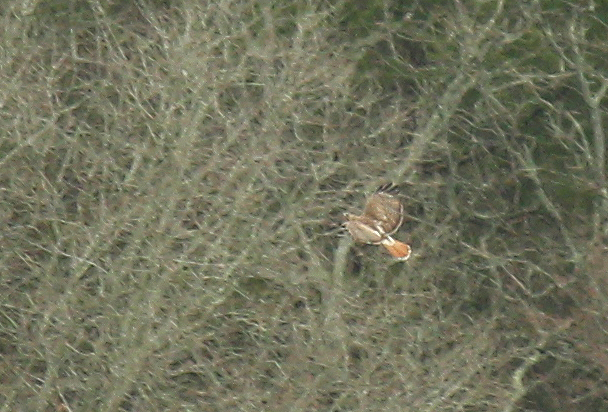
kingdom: Animalia
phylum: Chordata
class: Aves
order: Accipitriformes
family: Accipitridae
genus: Buteo
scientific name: Buteo jamaicensis
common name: Red-tailed hawk
